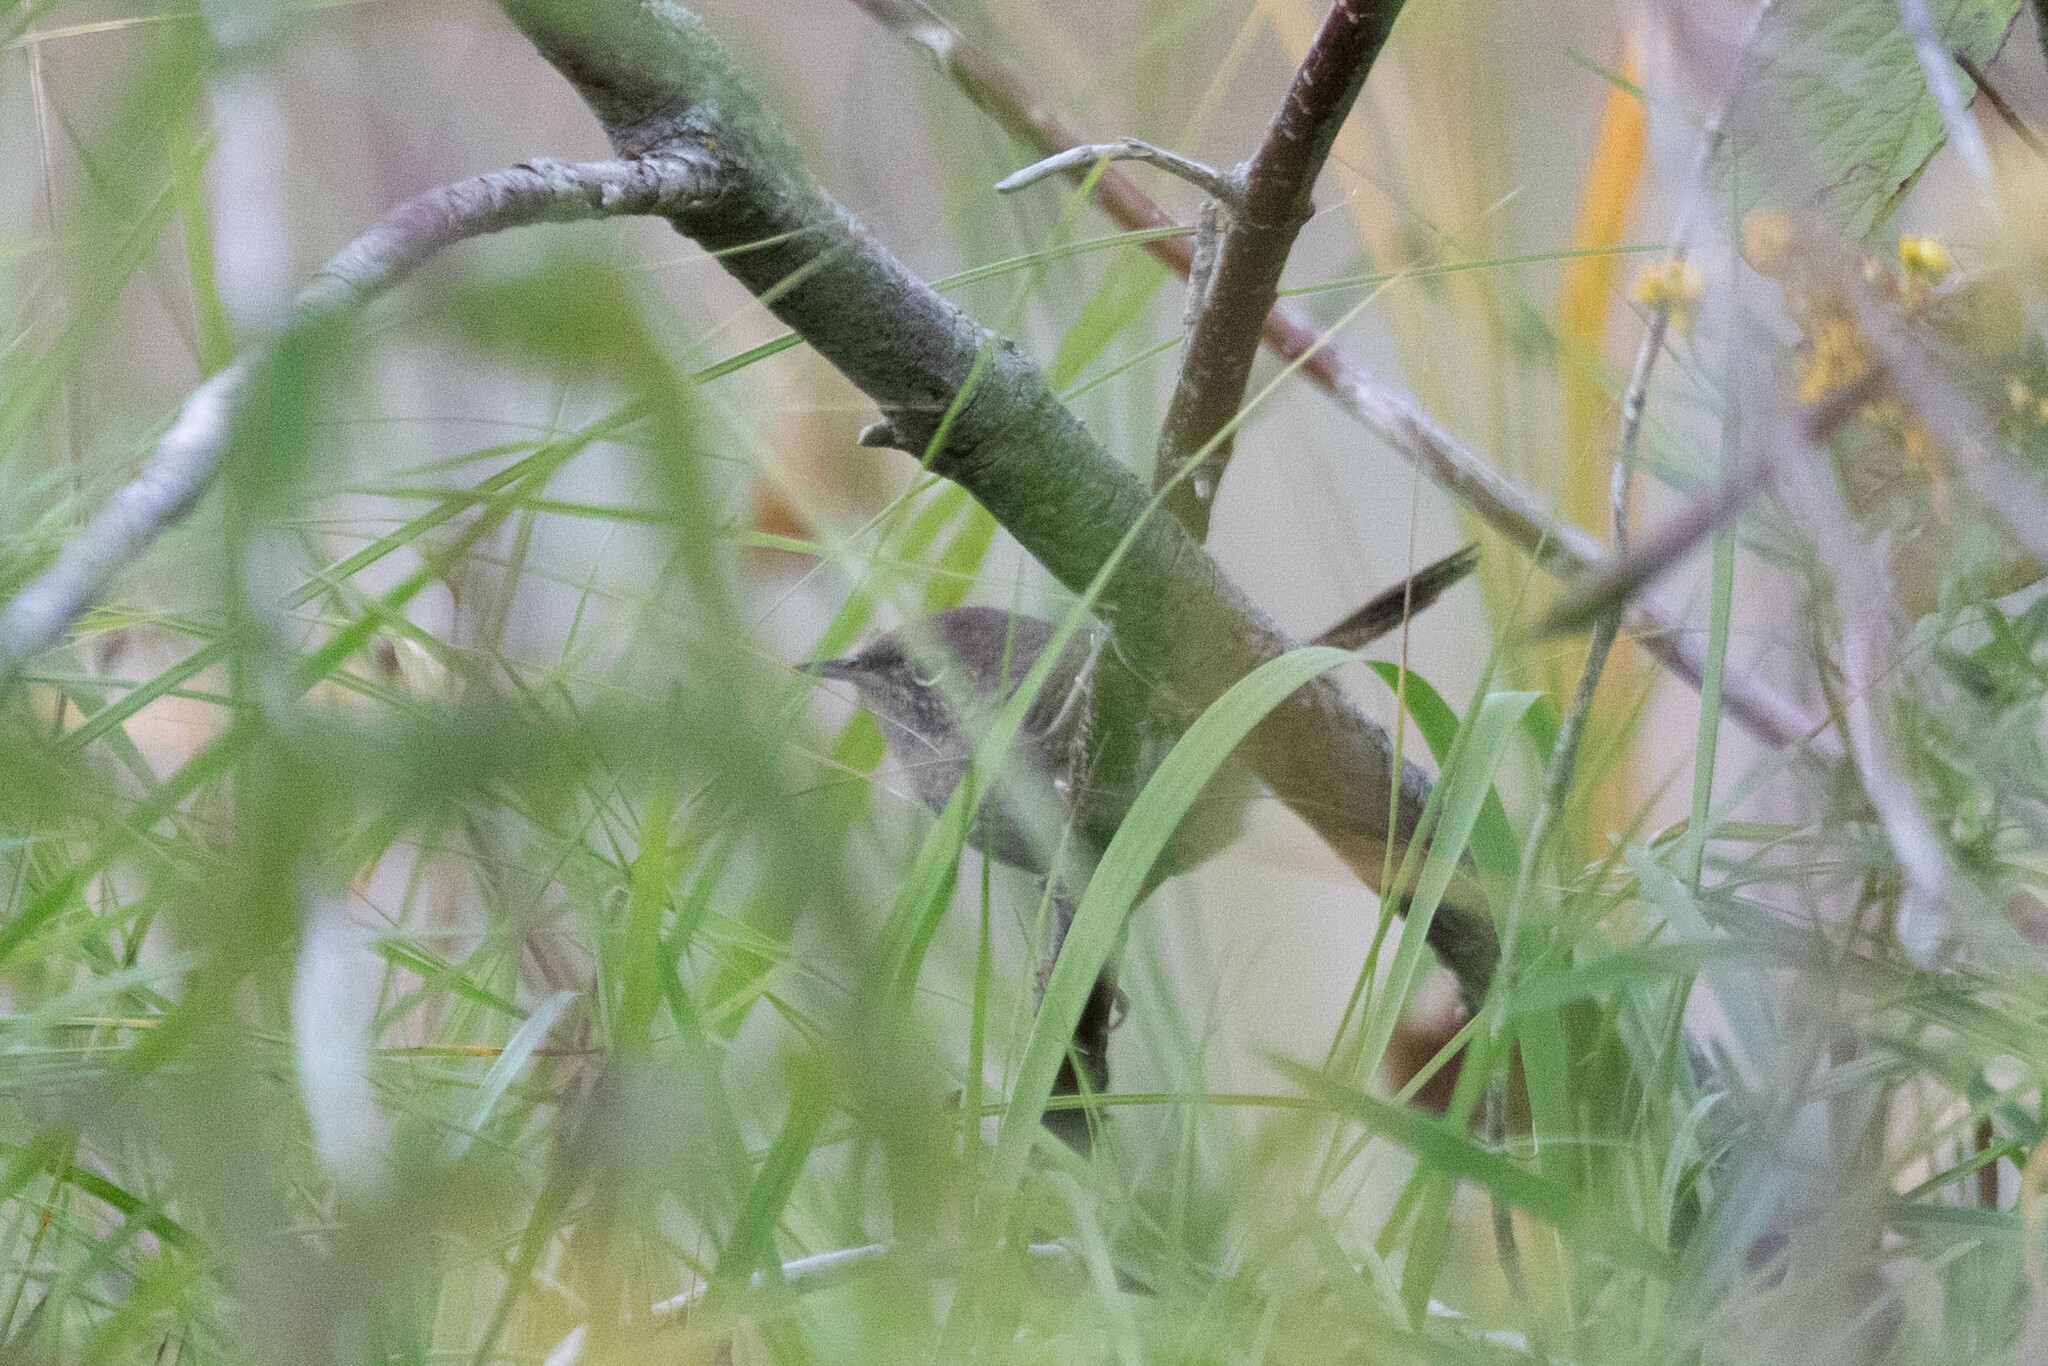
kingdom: Animalia
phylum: Chordata
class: Aves
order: Passeriformes
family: Troglodytidae
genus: Troglodytes
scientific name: Troglodytes aedon
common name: House wren
